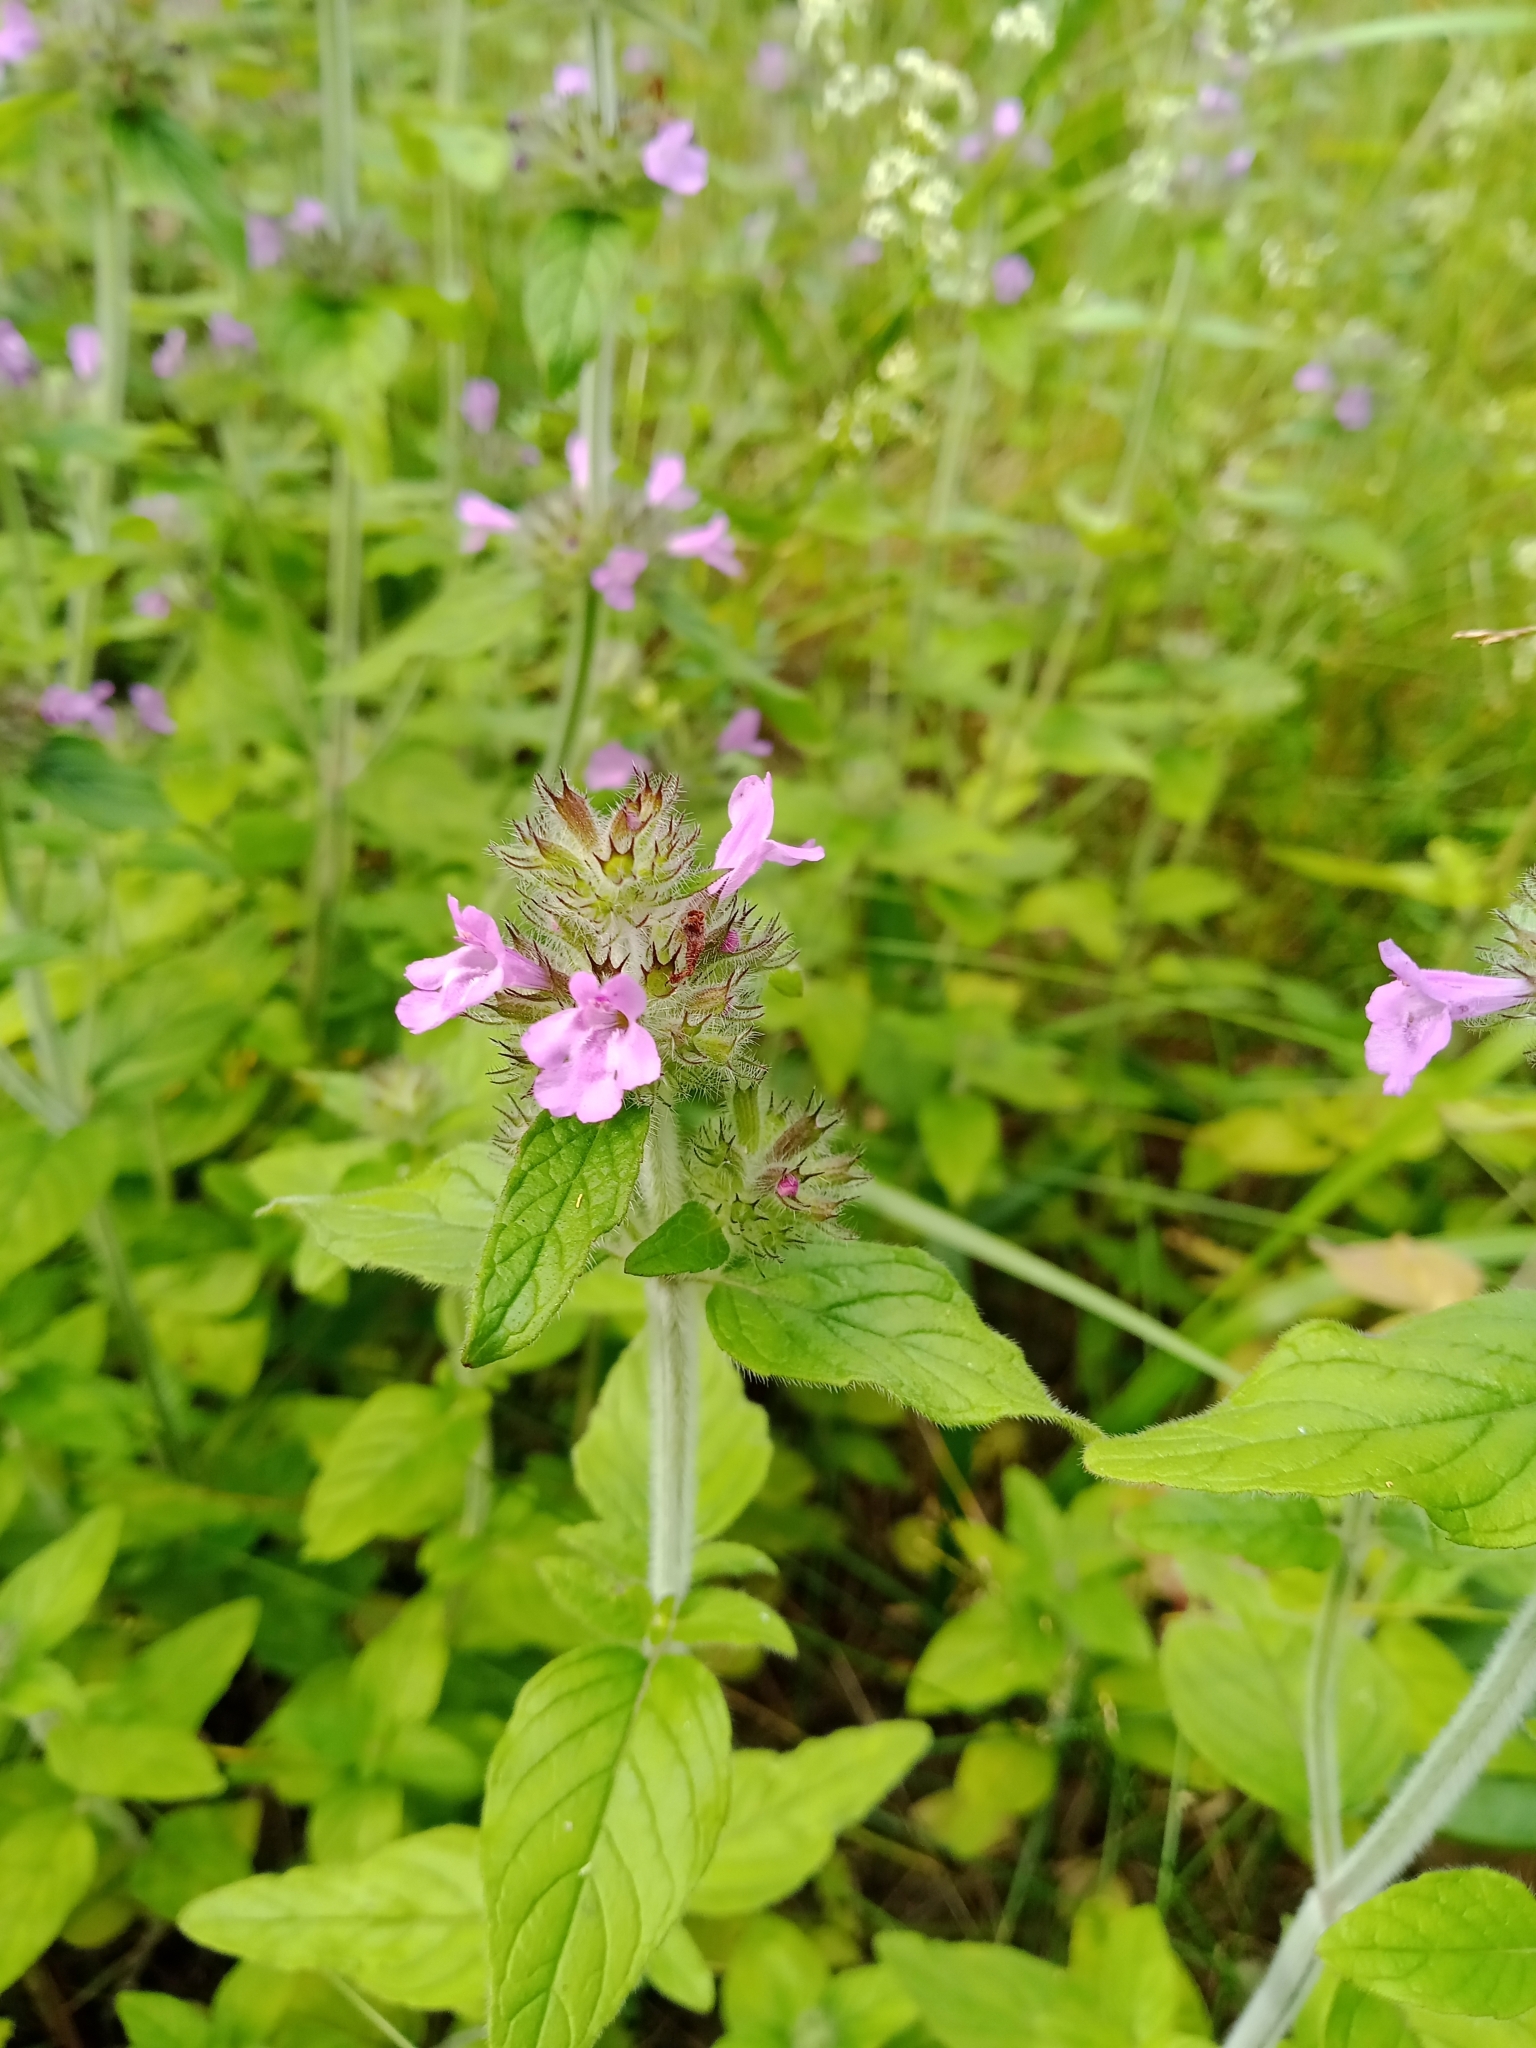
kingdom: Plantae
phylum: Tracheophyta
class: Magnoliopsida
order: Lamiales
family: Lamiaceae
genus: Clinopodium
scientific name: Clinopodium vulgare
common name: Wild basil
